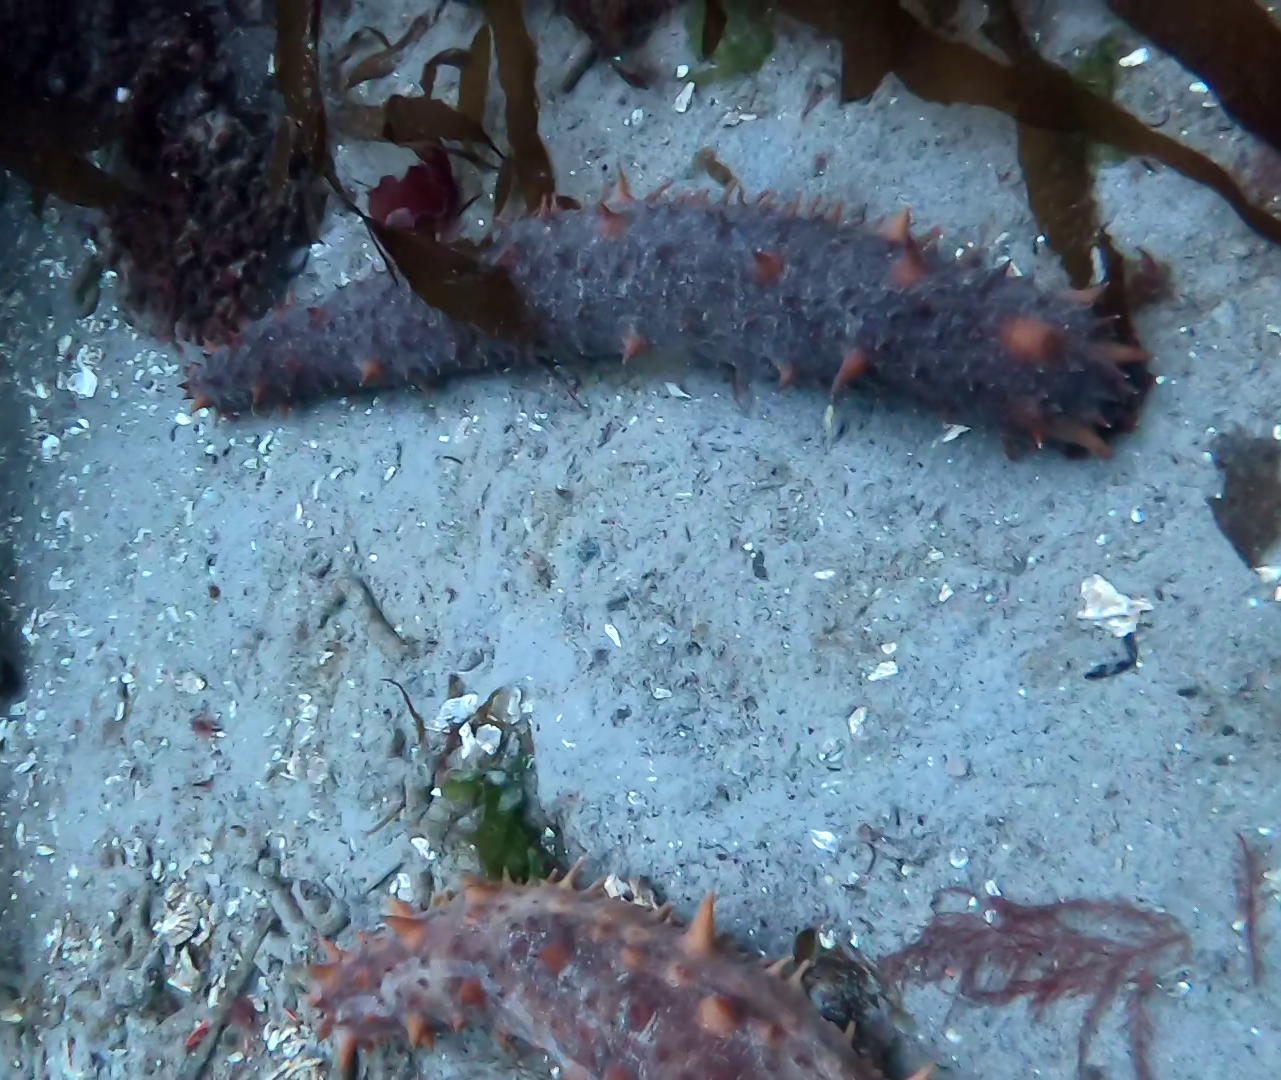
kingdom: Animalia
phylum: Echinodermata
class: Holothuroidea
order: Synallactida
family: Stichopodidae
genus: Apostichopus
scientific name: Apostichopus californicus
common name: California sea cucumber
